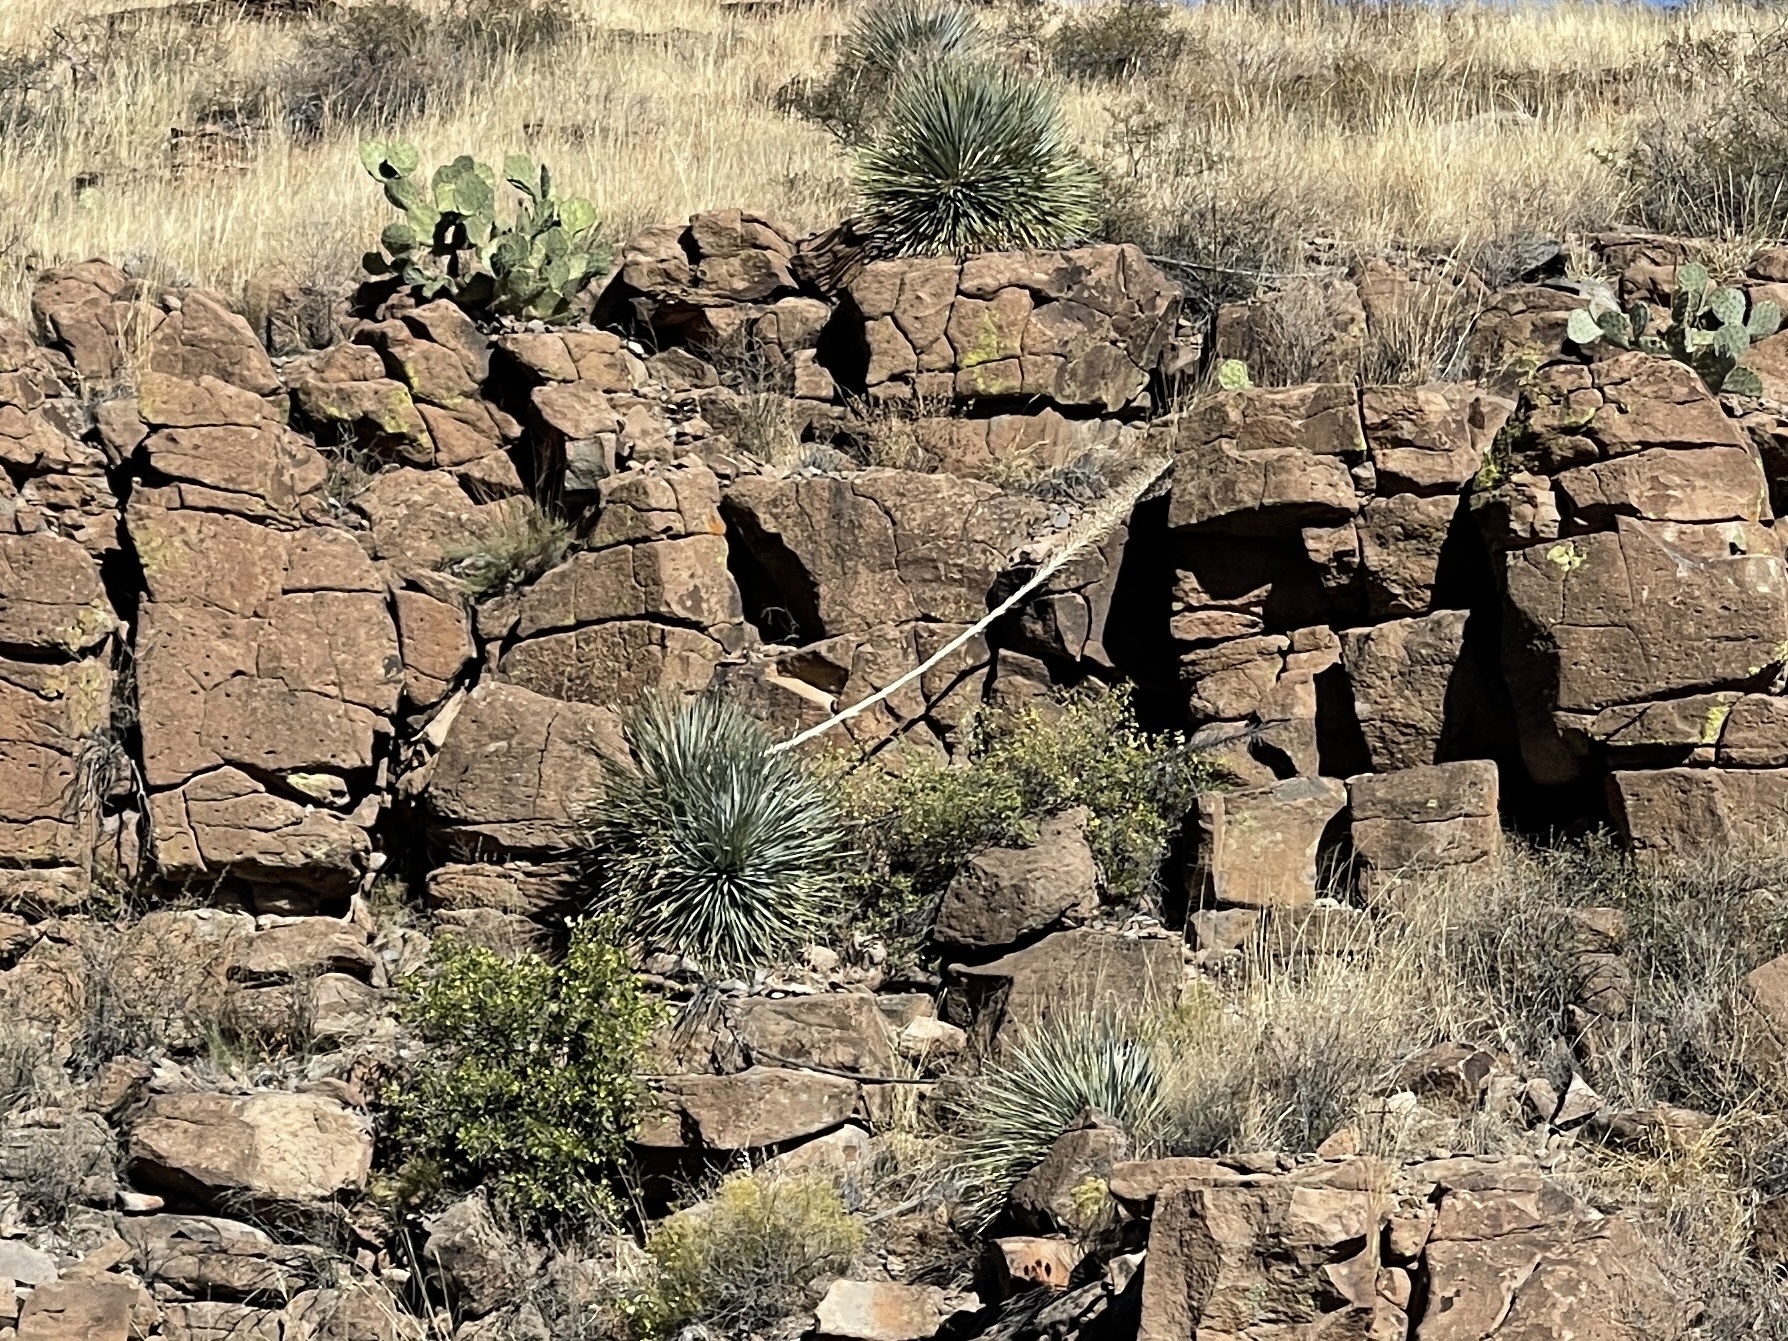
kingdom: Plantae
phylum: Tracheophyta
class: Liliopsida
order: Asparagales
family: Asparagaceae
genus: Dasylirion
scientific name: Dasylirion wheeleri
